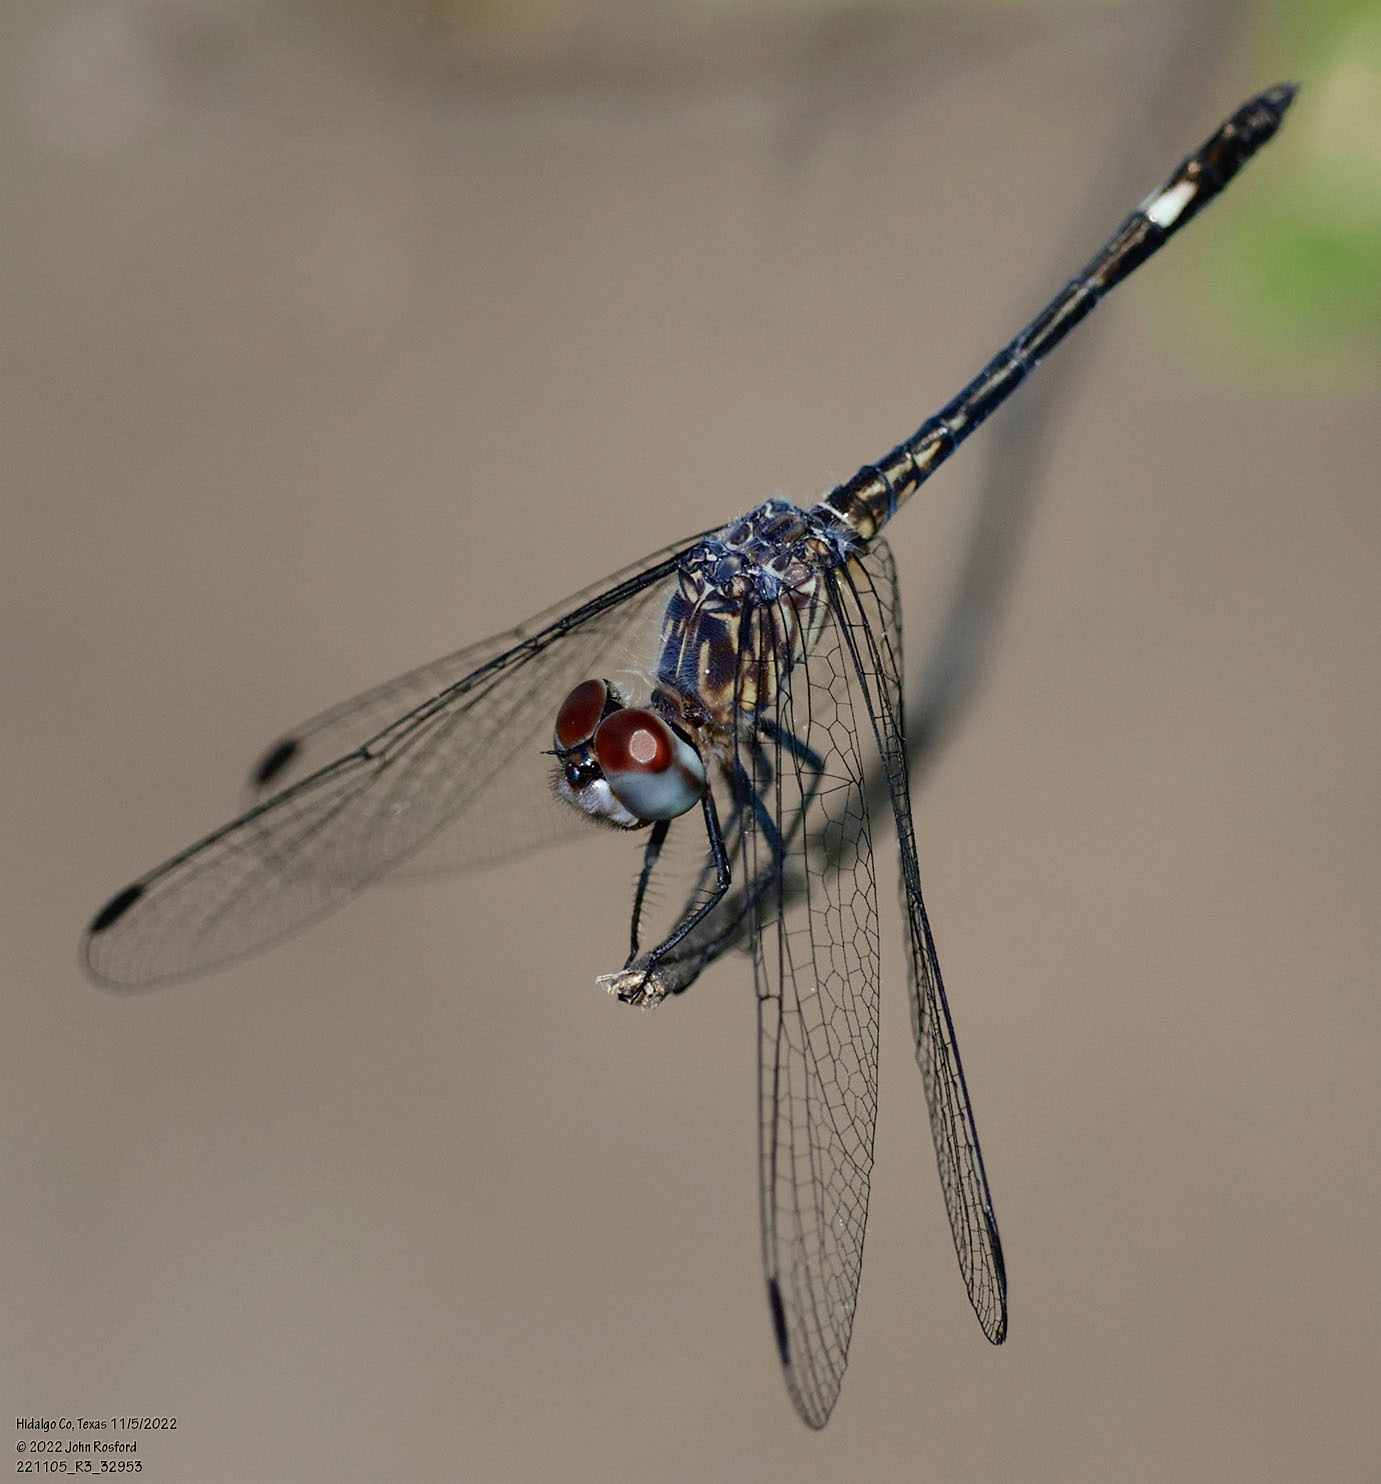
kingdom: Animalia
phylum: Arthropoda
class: Insecta
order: Odonata
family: Libellulidae
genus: Micrathyria
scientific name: Micrathyria aequalis
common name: Spot-tailed dasher
